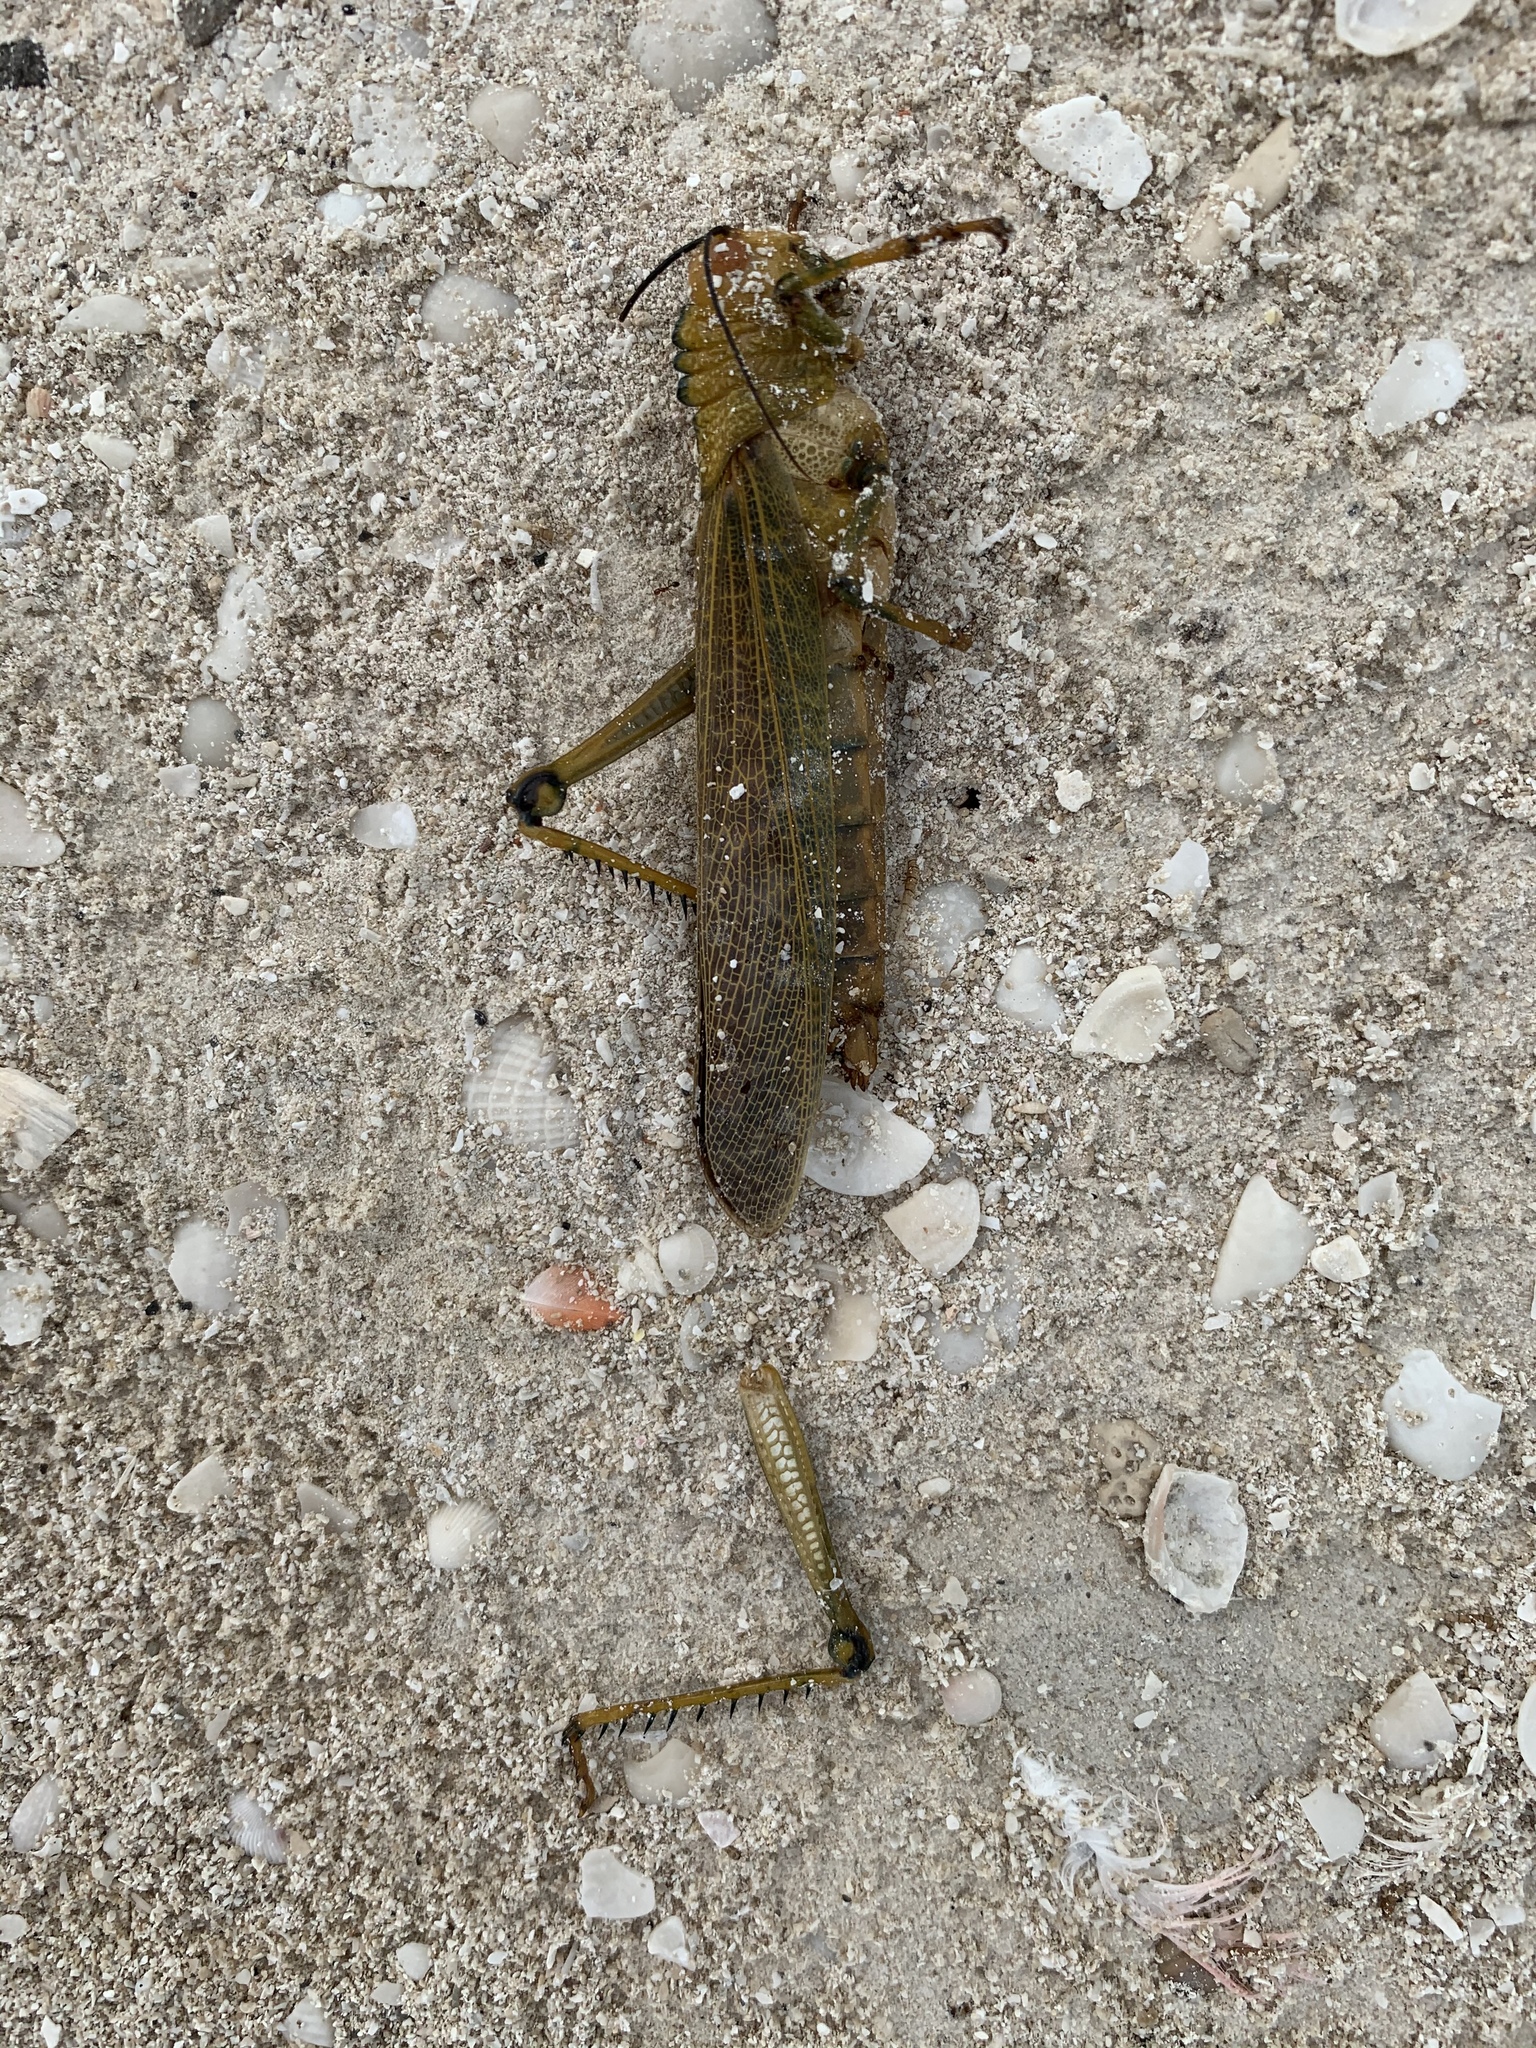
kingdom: Animalia
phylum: Arthropoda
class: Insecta
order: Orthoptera
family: Romaleidae
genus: Tropidacris
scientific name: Tropidacris cristata
